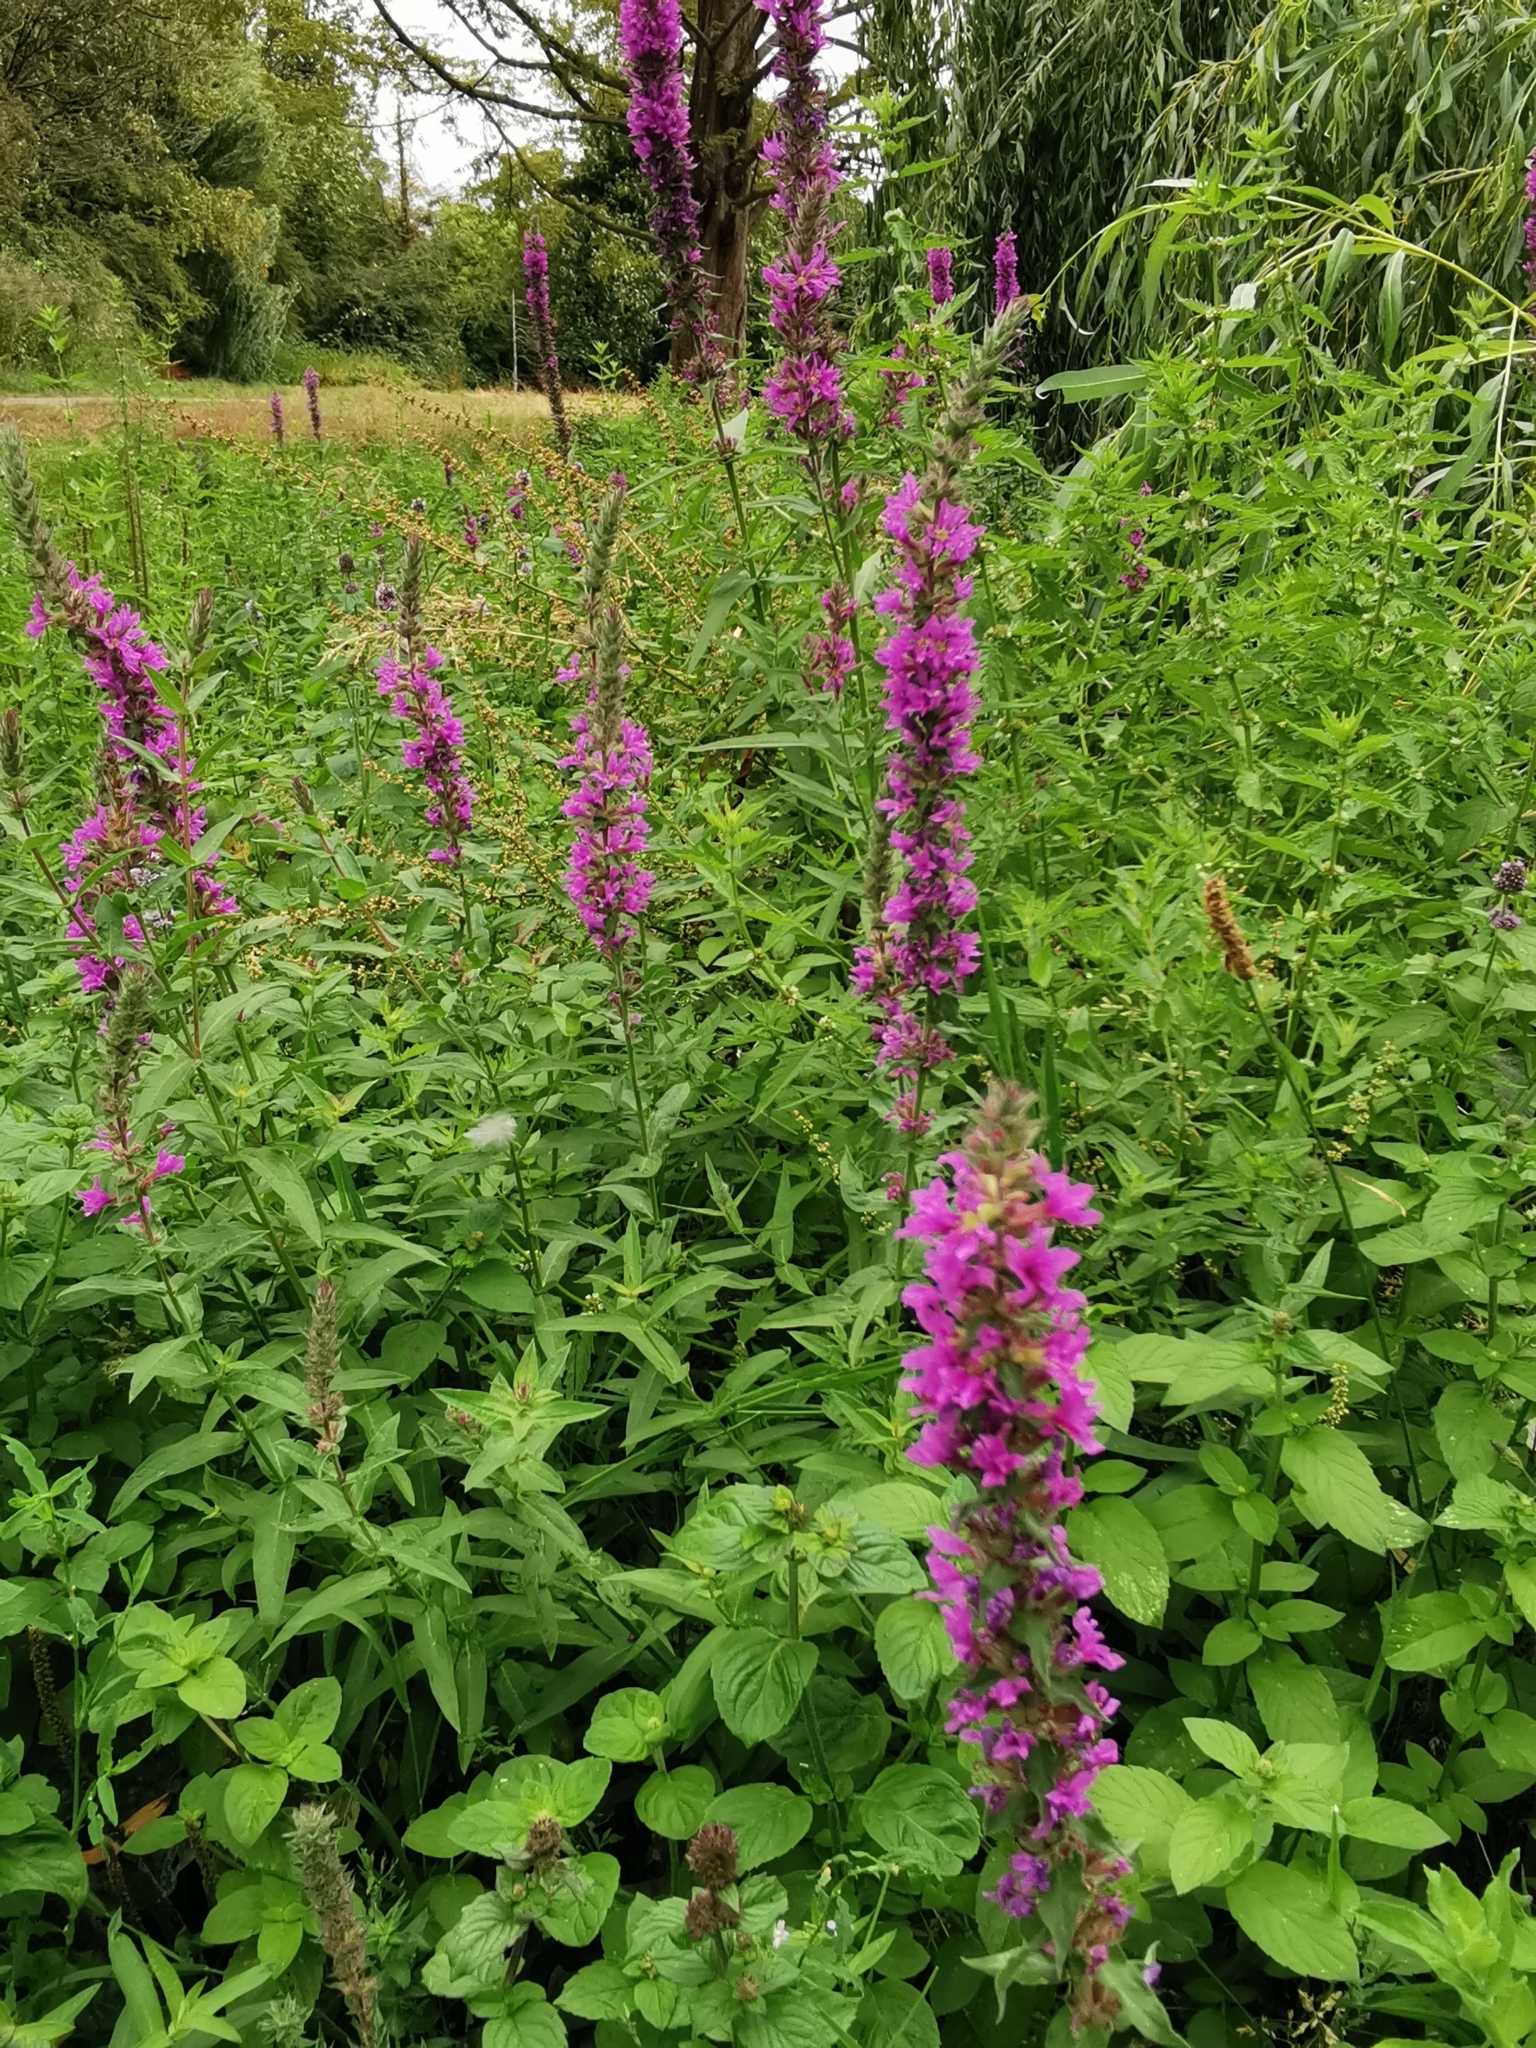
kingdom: Plantae
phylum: Tracheophyta
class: Magnoliopsida
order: Myrtales
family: Lythraceae
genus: Lythrum
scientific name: Lythrum salicaria
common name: Purple loosestrife
